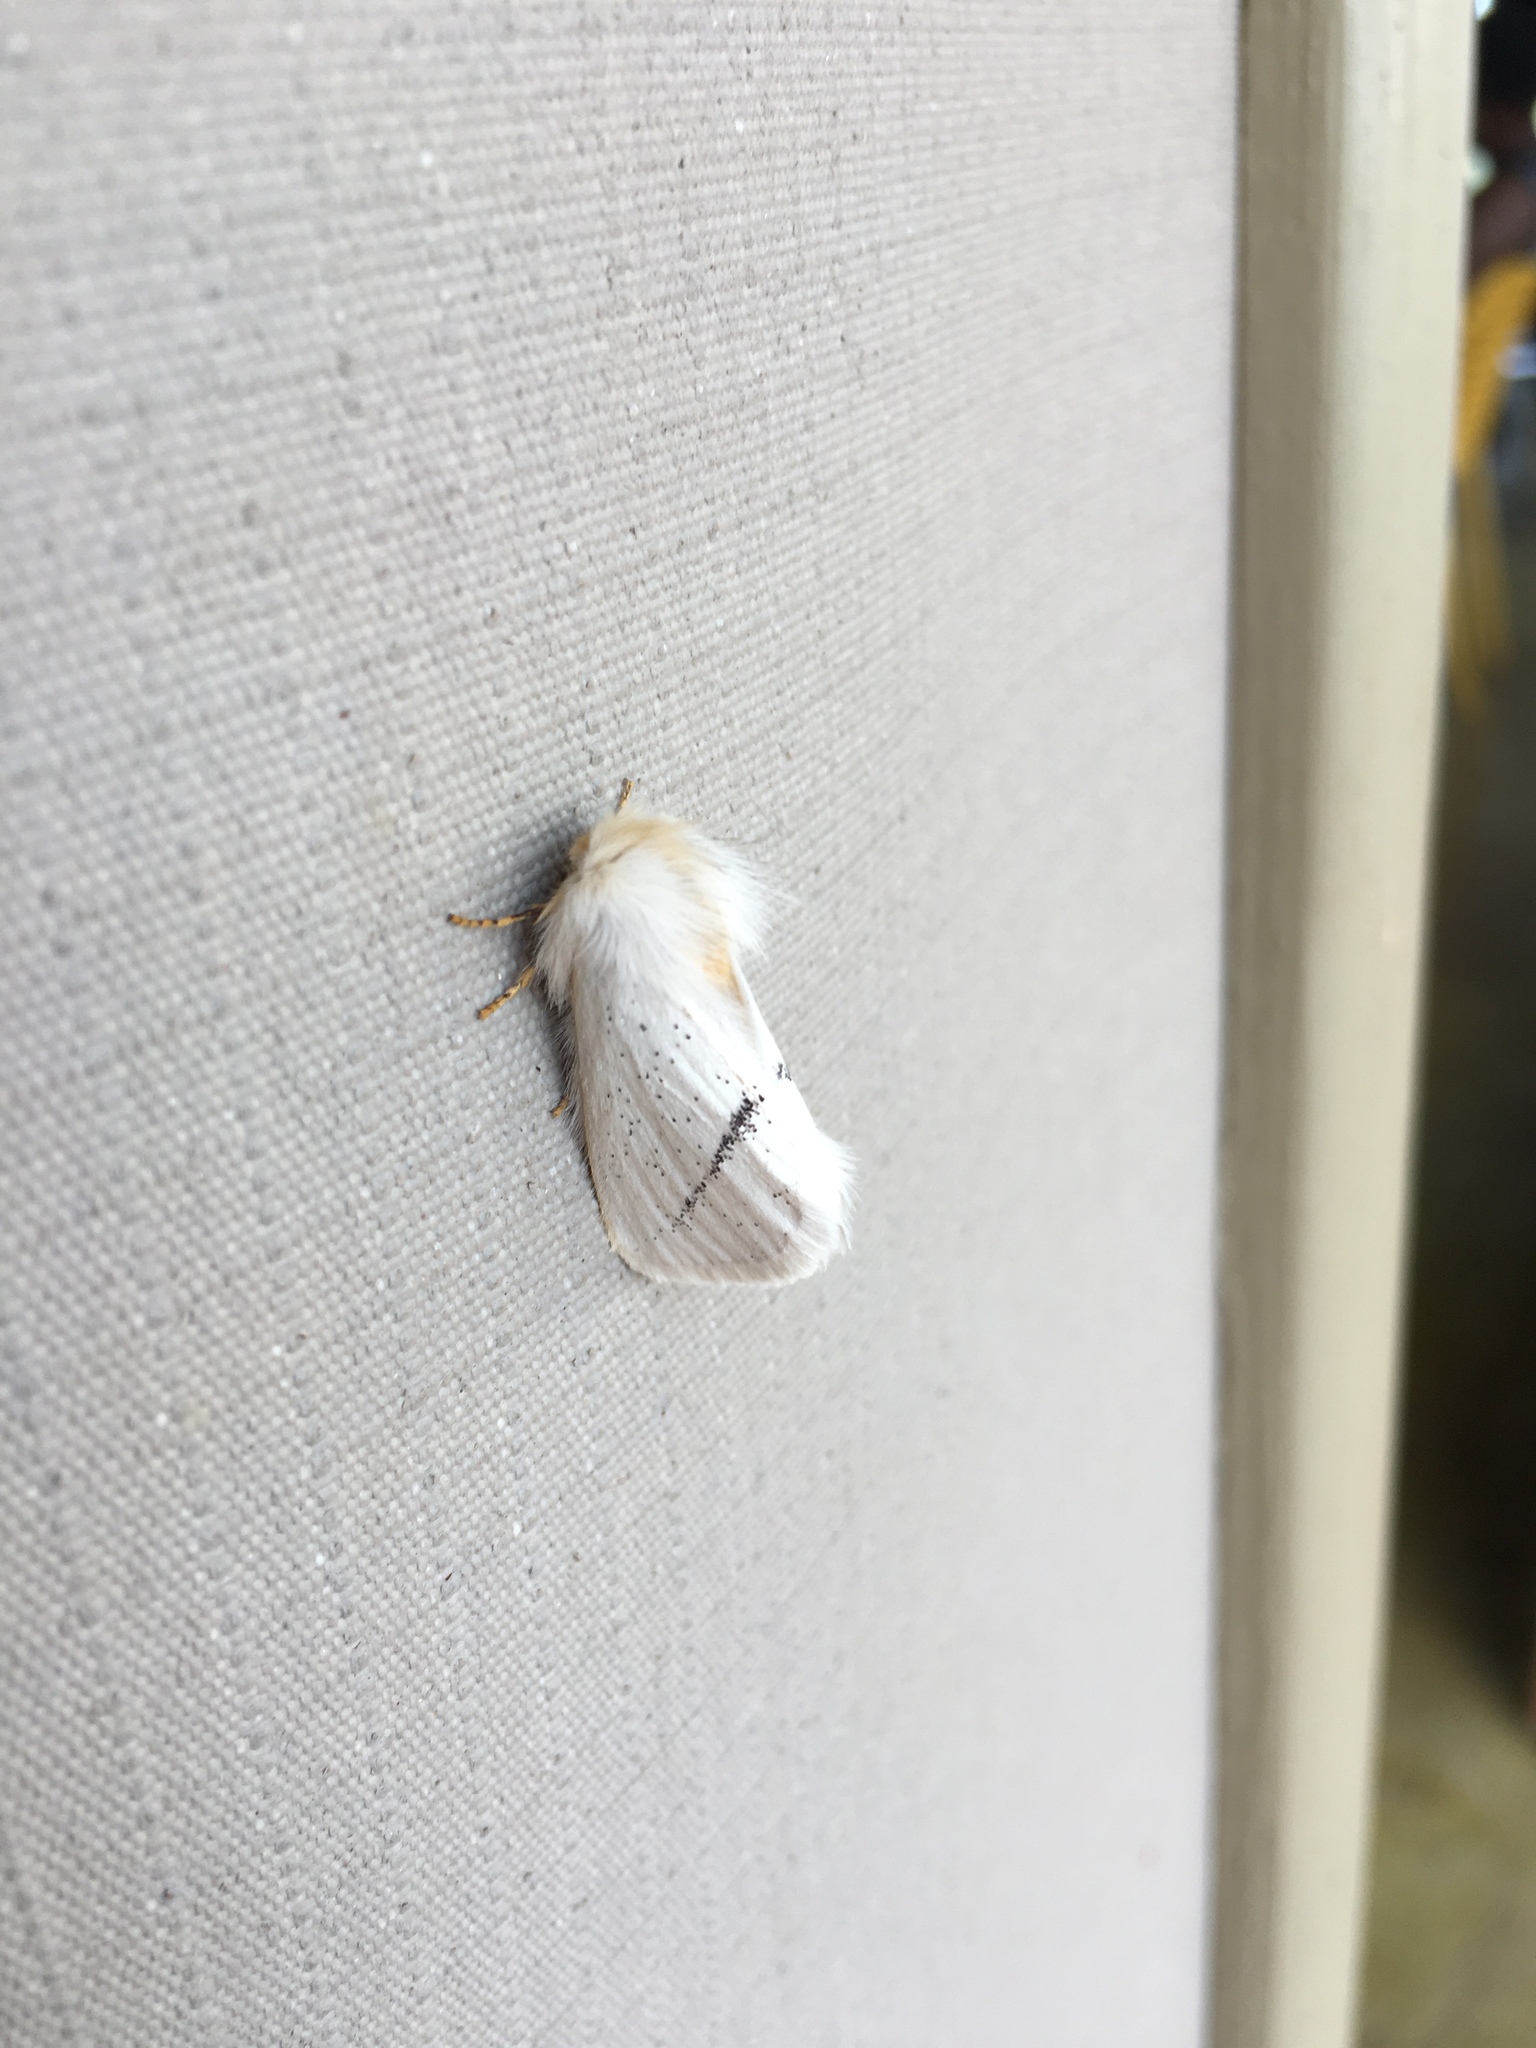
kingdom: Animalia
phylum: Arthropoda
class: Insecta
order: Lepidoptera
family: Eupterotidae
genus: Phiala
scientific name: Phiala incana
